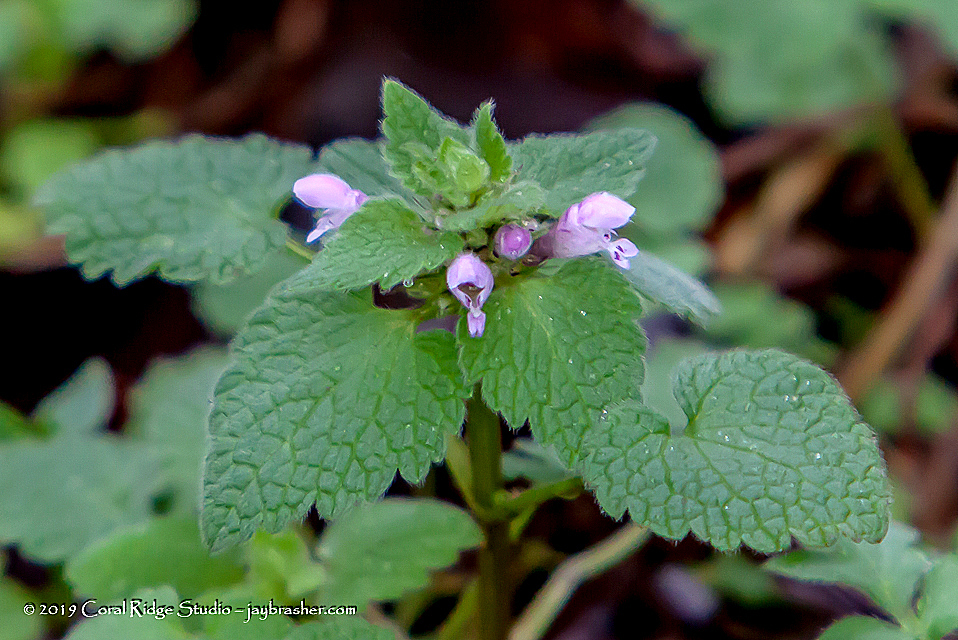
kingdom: Plantae
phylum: Tracheophyta
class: Magnoliopsida
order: Lamiales
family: Lamiaceae
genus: Lamium
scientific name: Lamium purpureum
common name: Red dead-nettle
